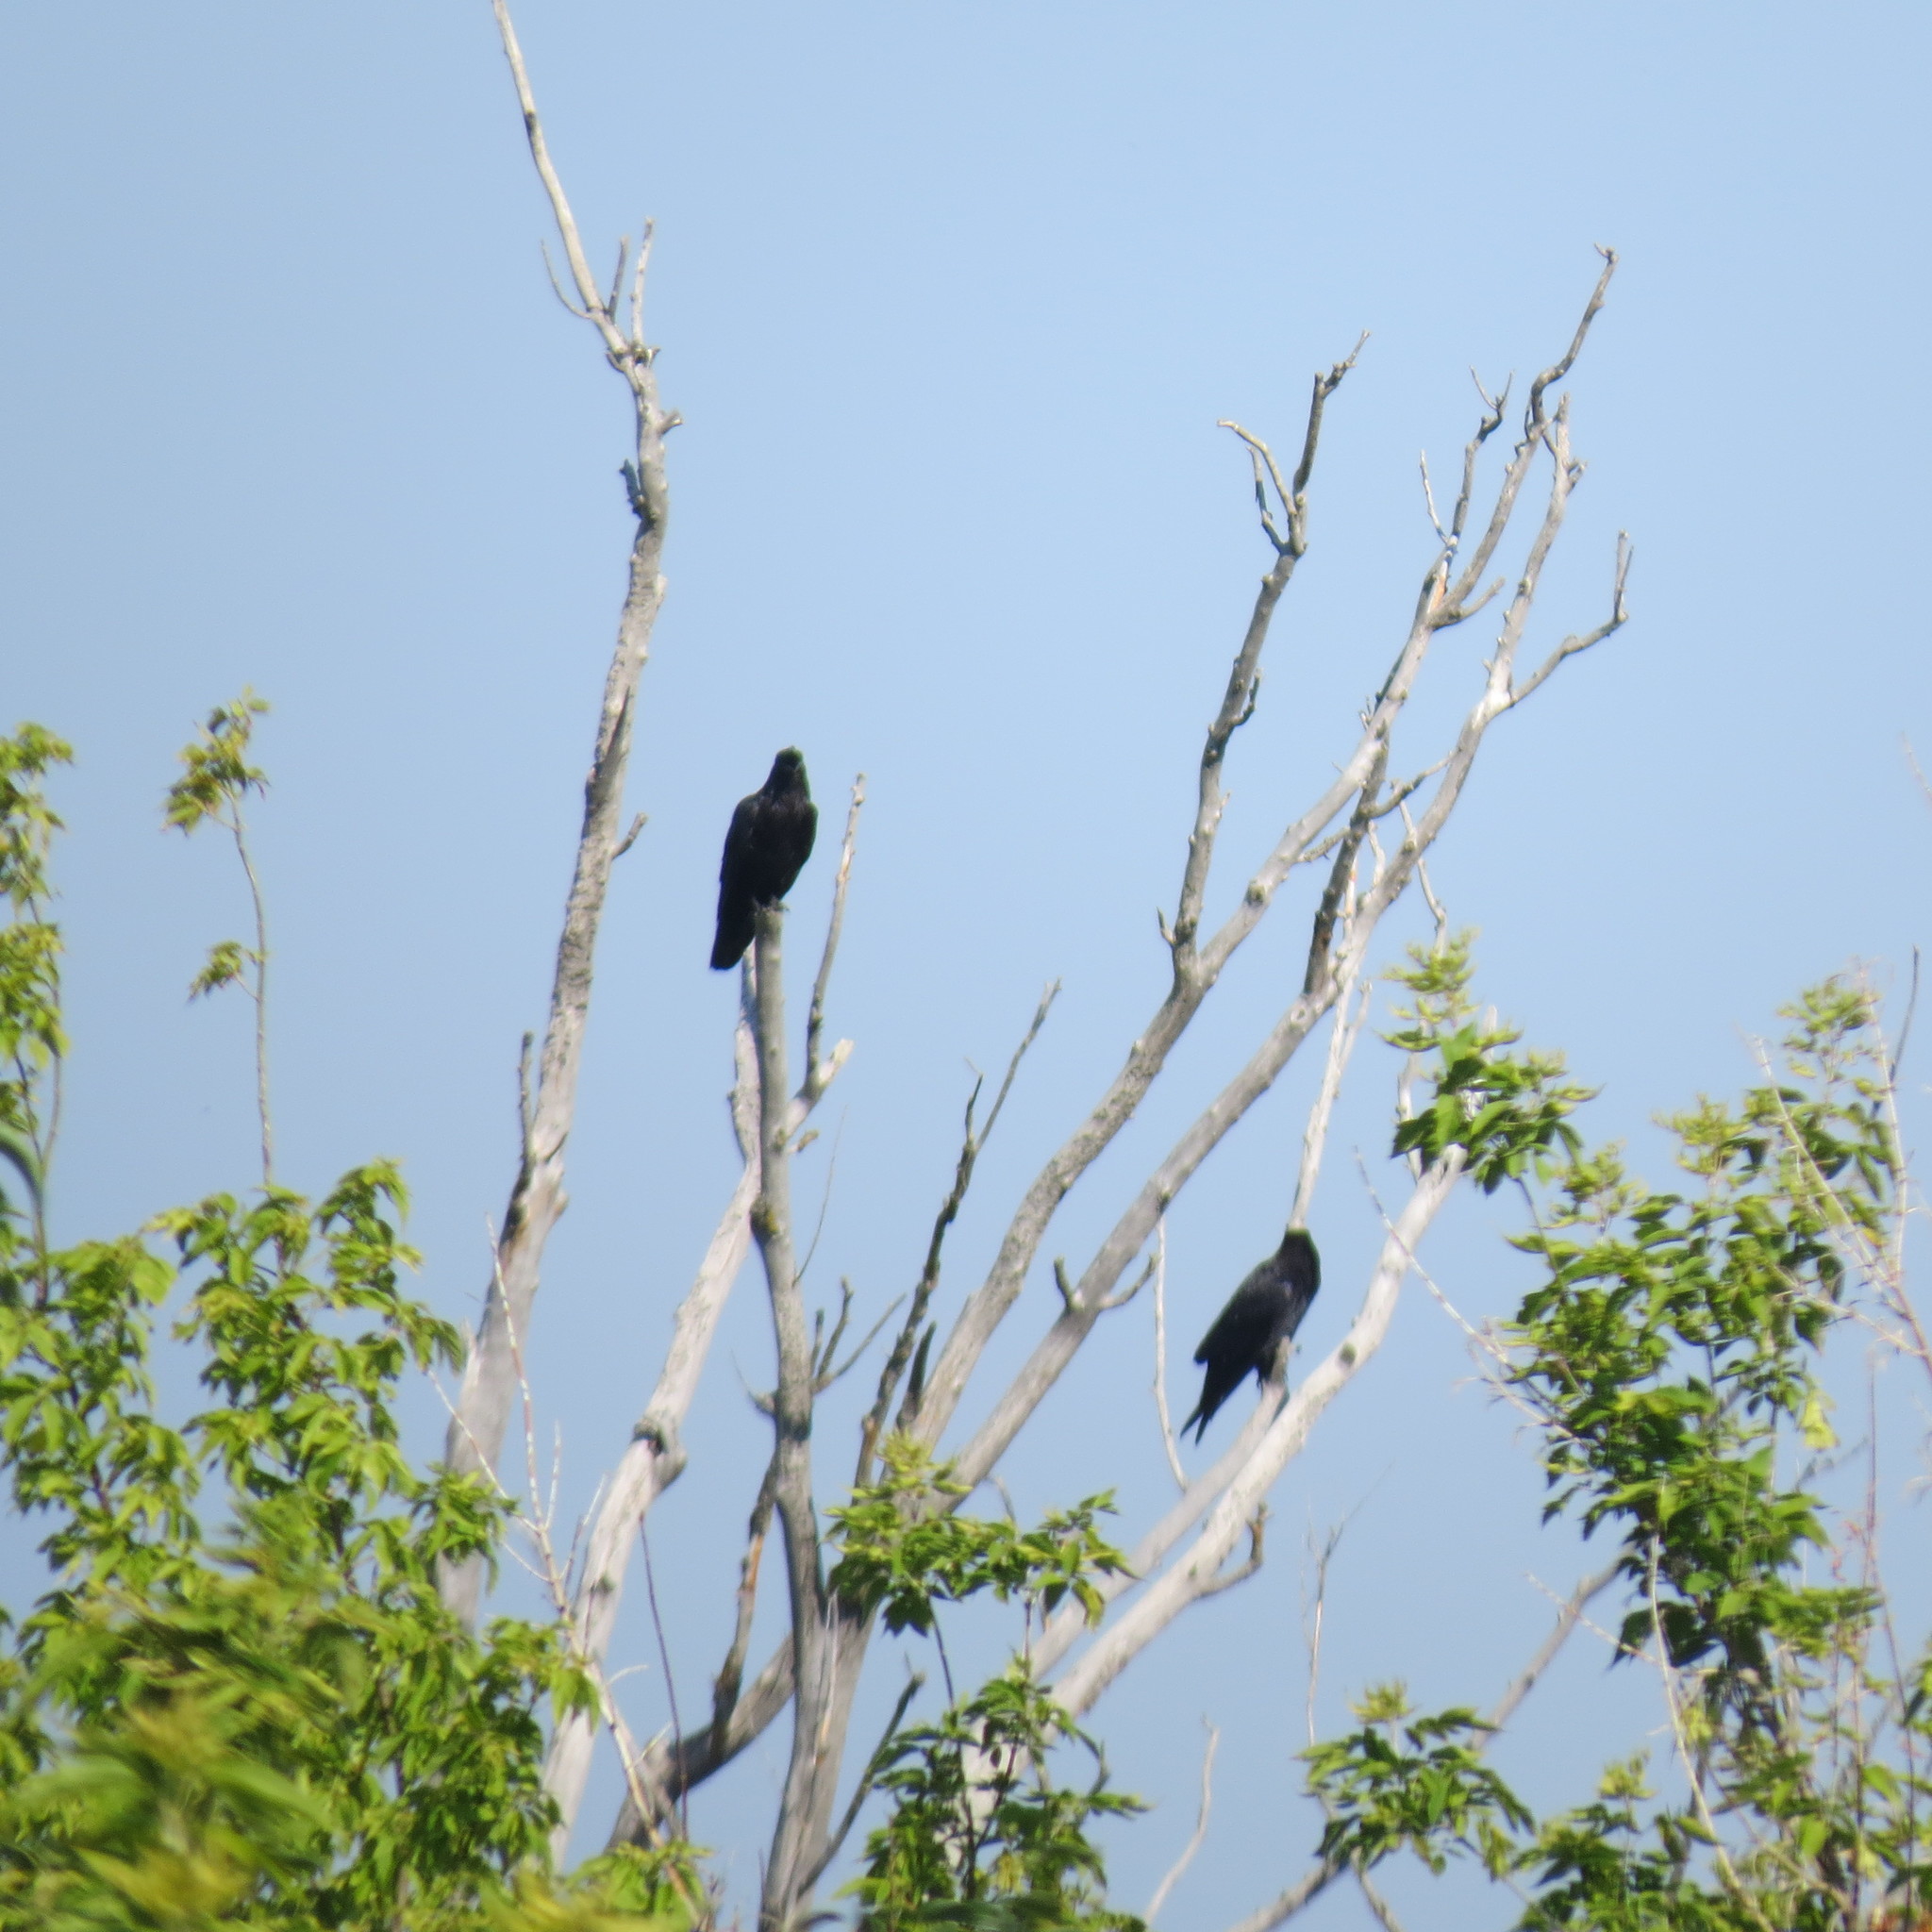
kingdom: Animalia
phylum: Chordata
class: Aves
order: Passeriformes
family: Corvidae
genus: Corvus
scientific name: Corvus corax
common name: Common raven
